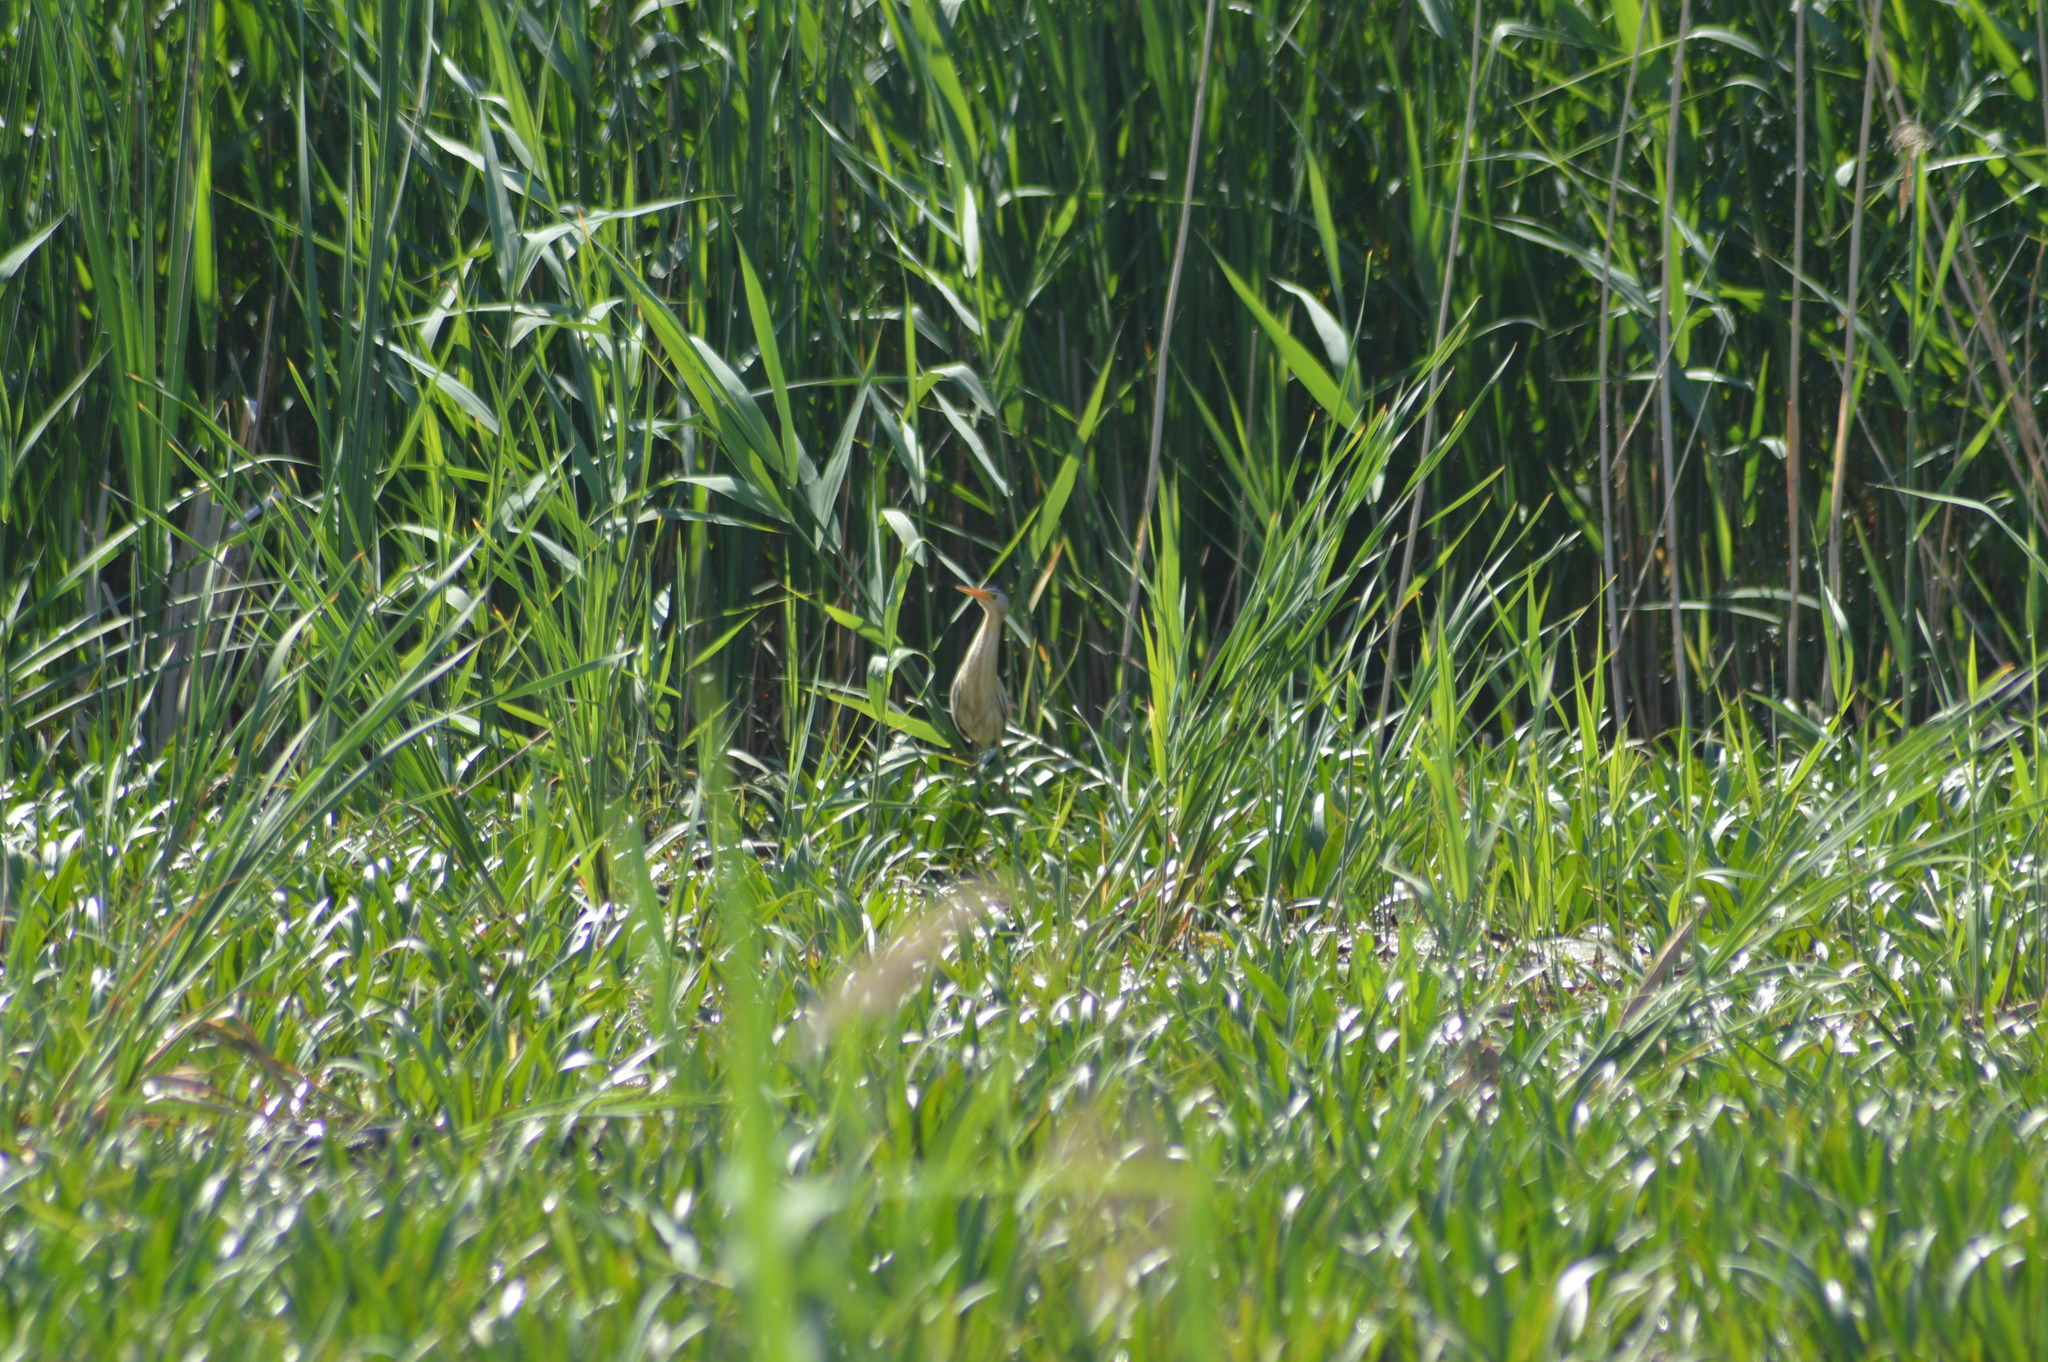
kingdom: Animalia
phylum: Chordata
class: Aves
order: Pelecaniformes
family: Ardeidae
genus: Ixobrychus
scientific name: Ixobrychus minutus
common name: Little bittern
